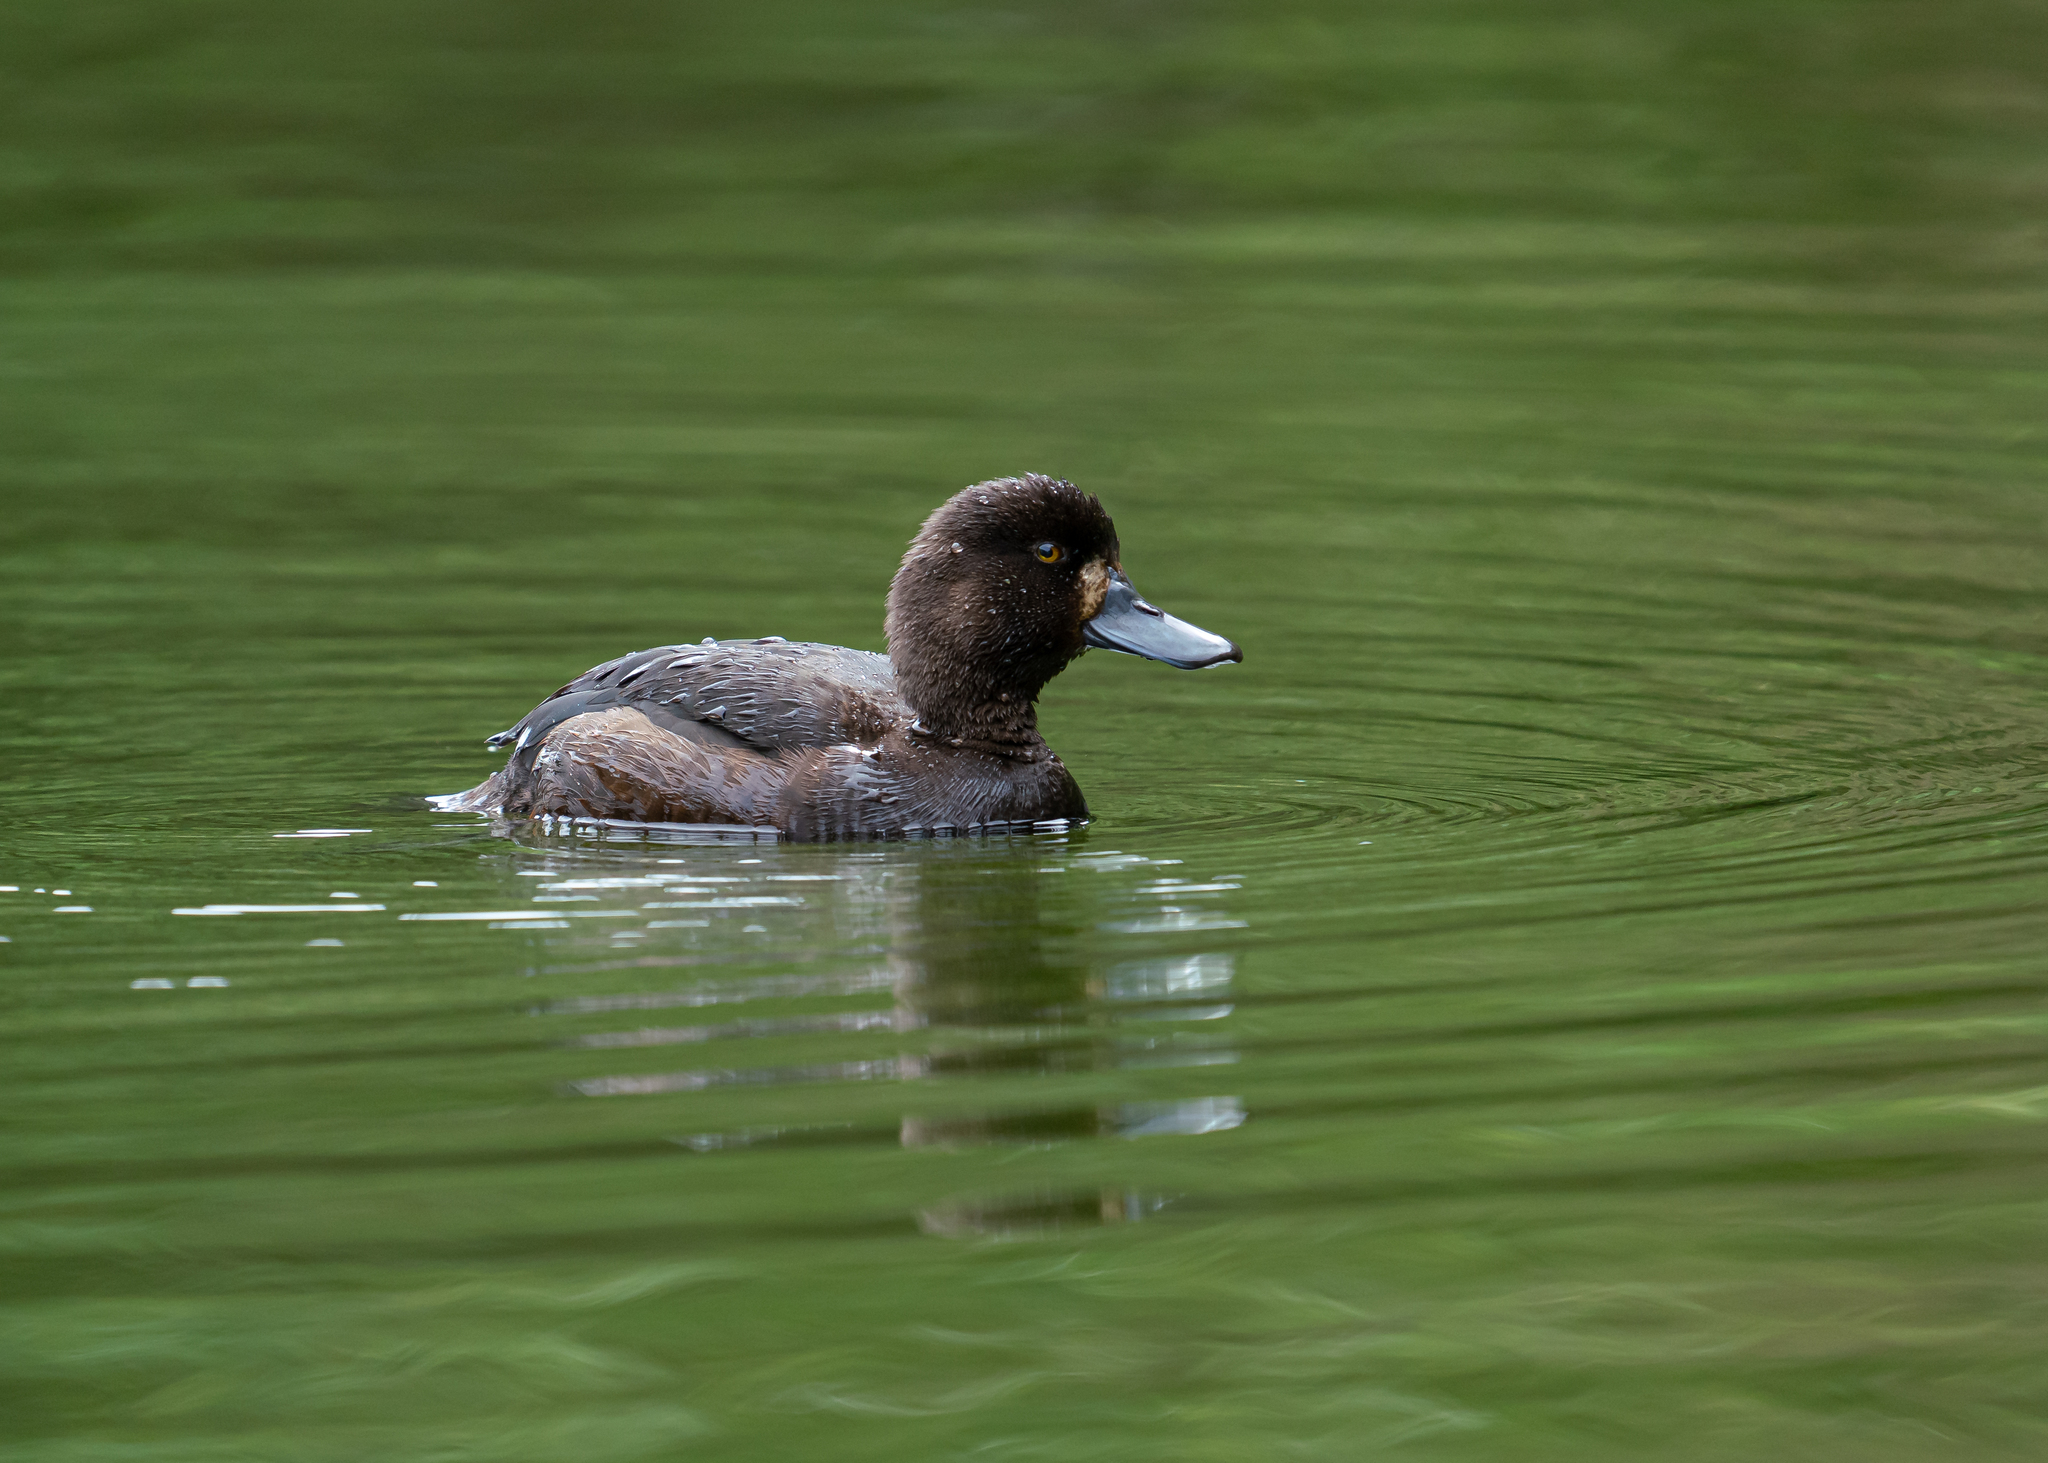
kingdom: Animalia
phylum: Chordata
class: Aves
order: Anseriformes
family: Anatidae
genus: Aythya
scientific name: Aythya novaeseelandiae
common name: New zealand scaup
